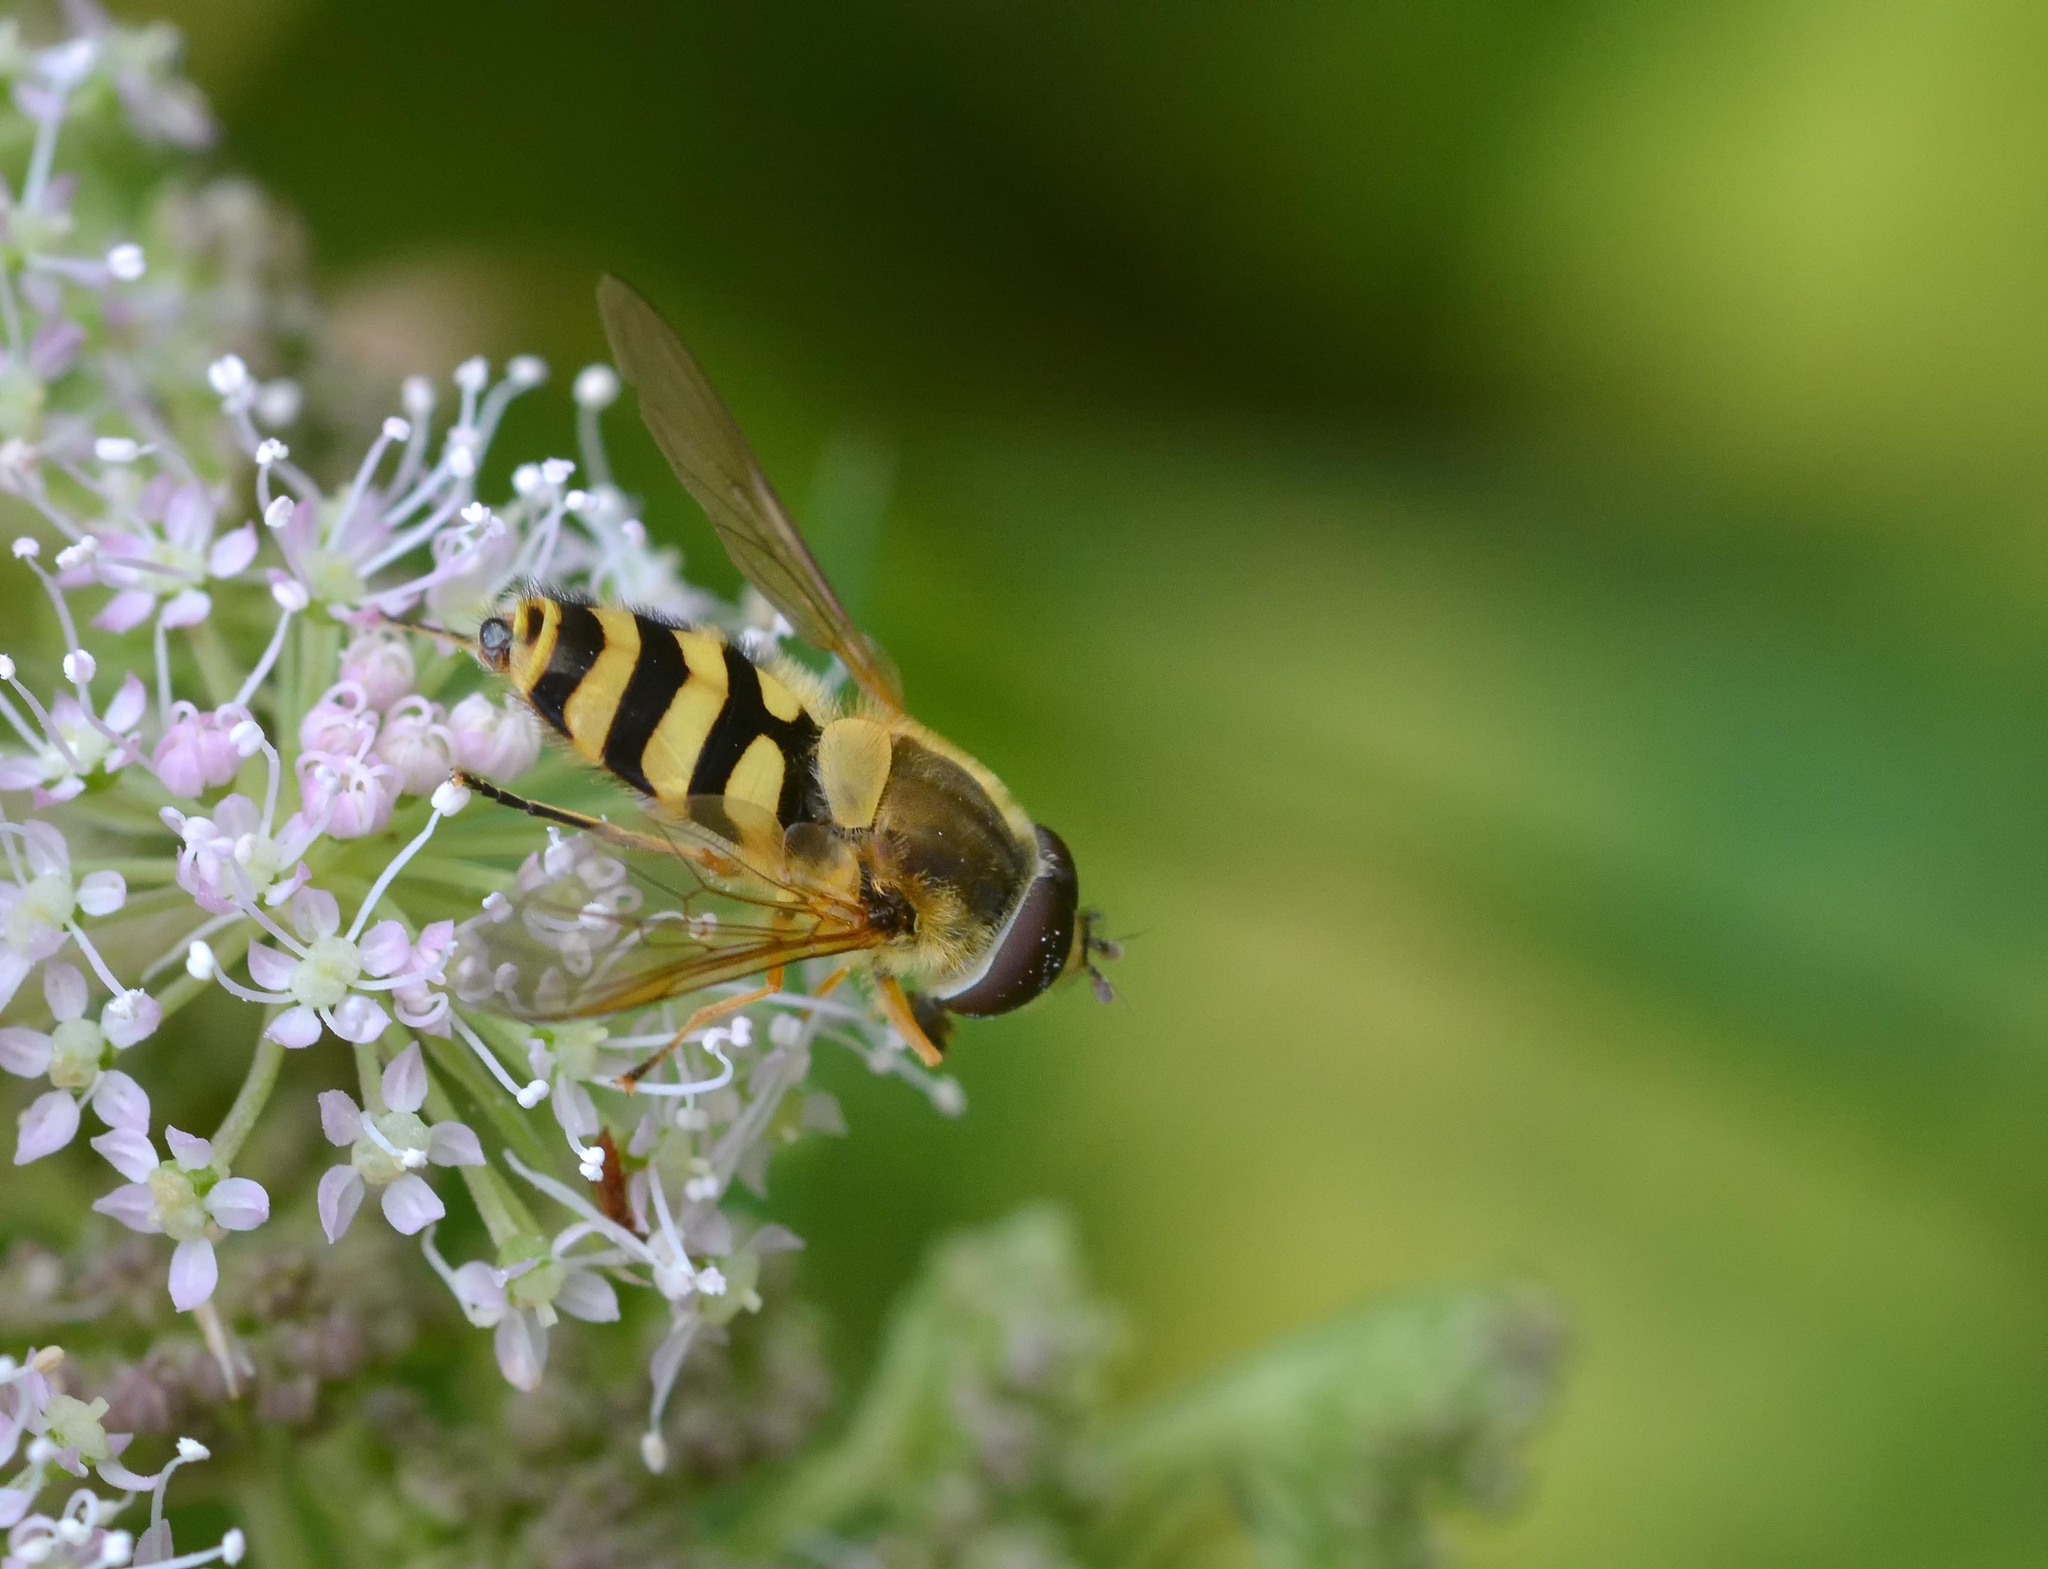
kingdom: Animalia
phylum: Arthropoda
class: Insecta
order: Diptera
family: Syrphidae
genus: Syrphus
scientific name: Syrphus
